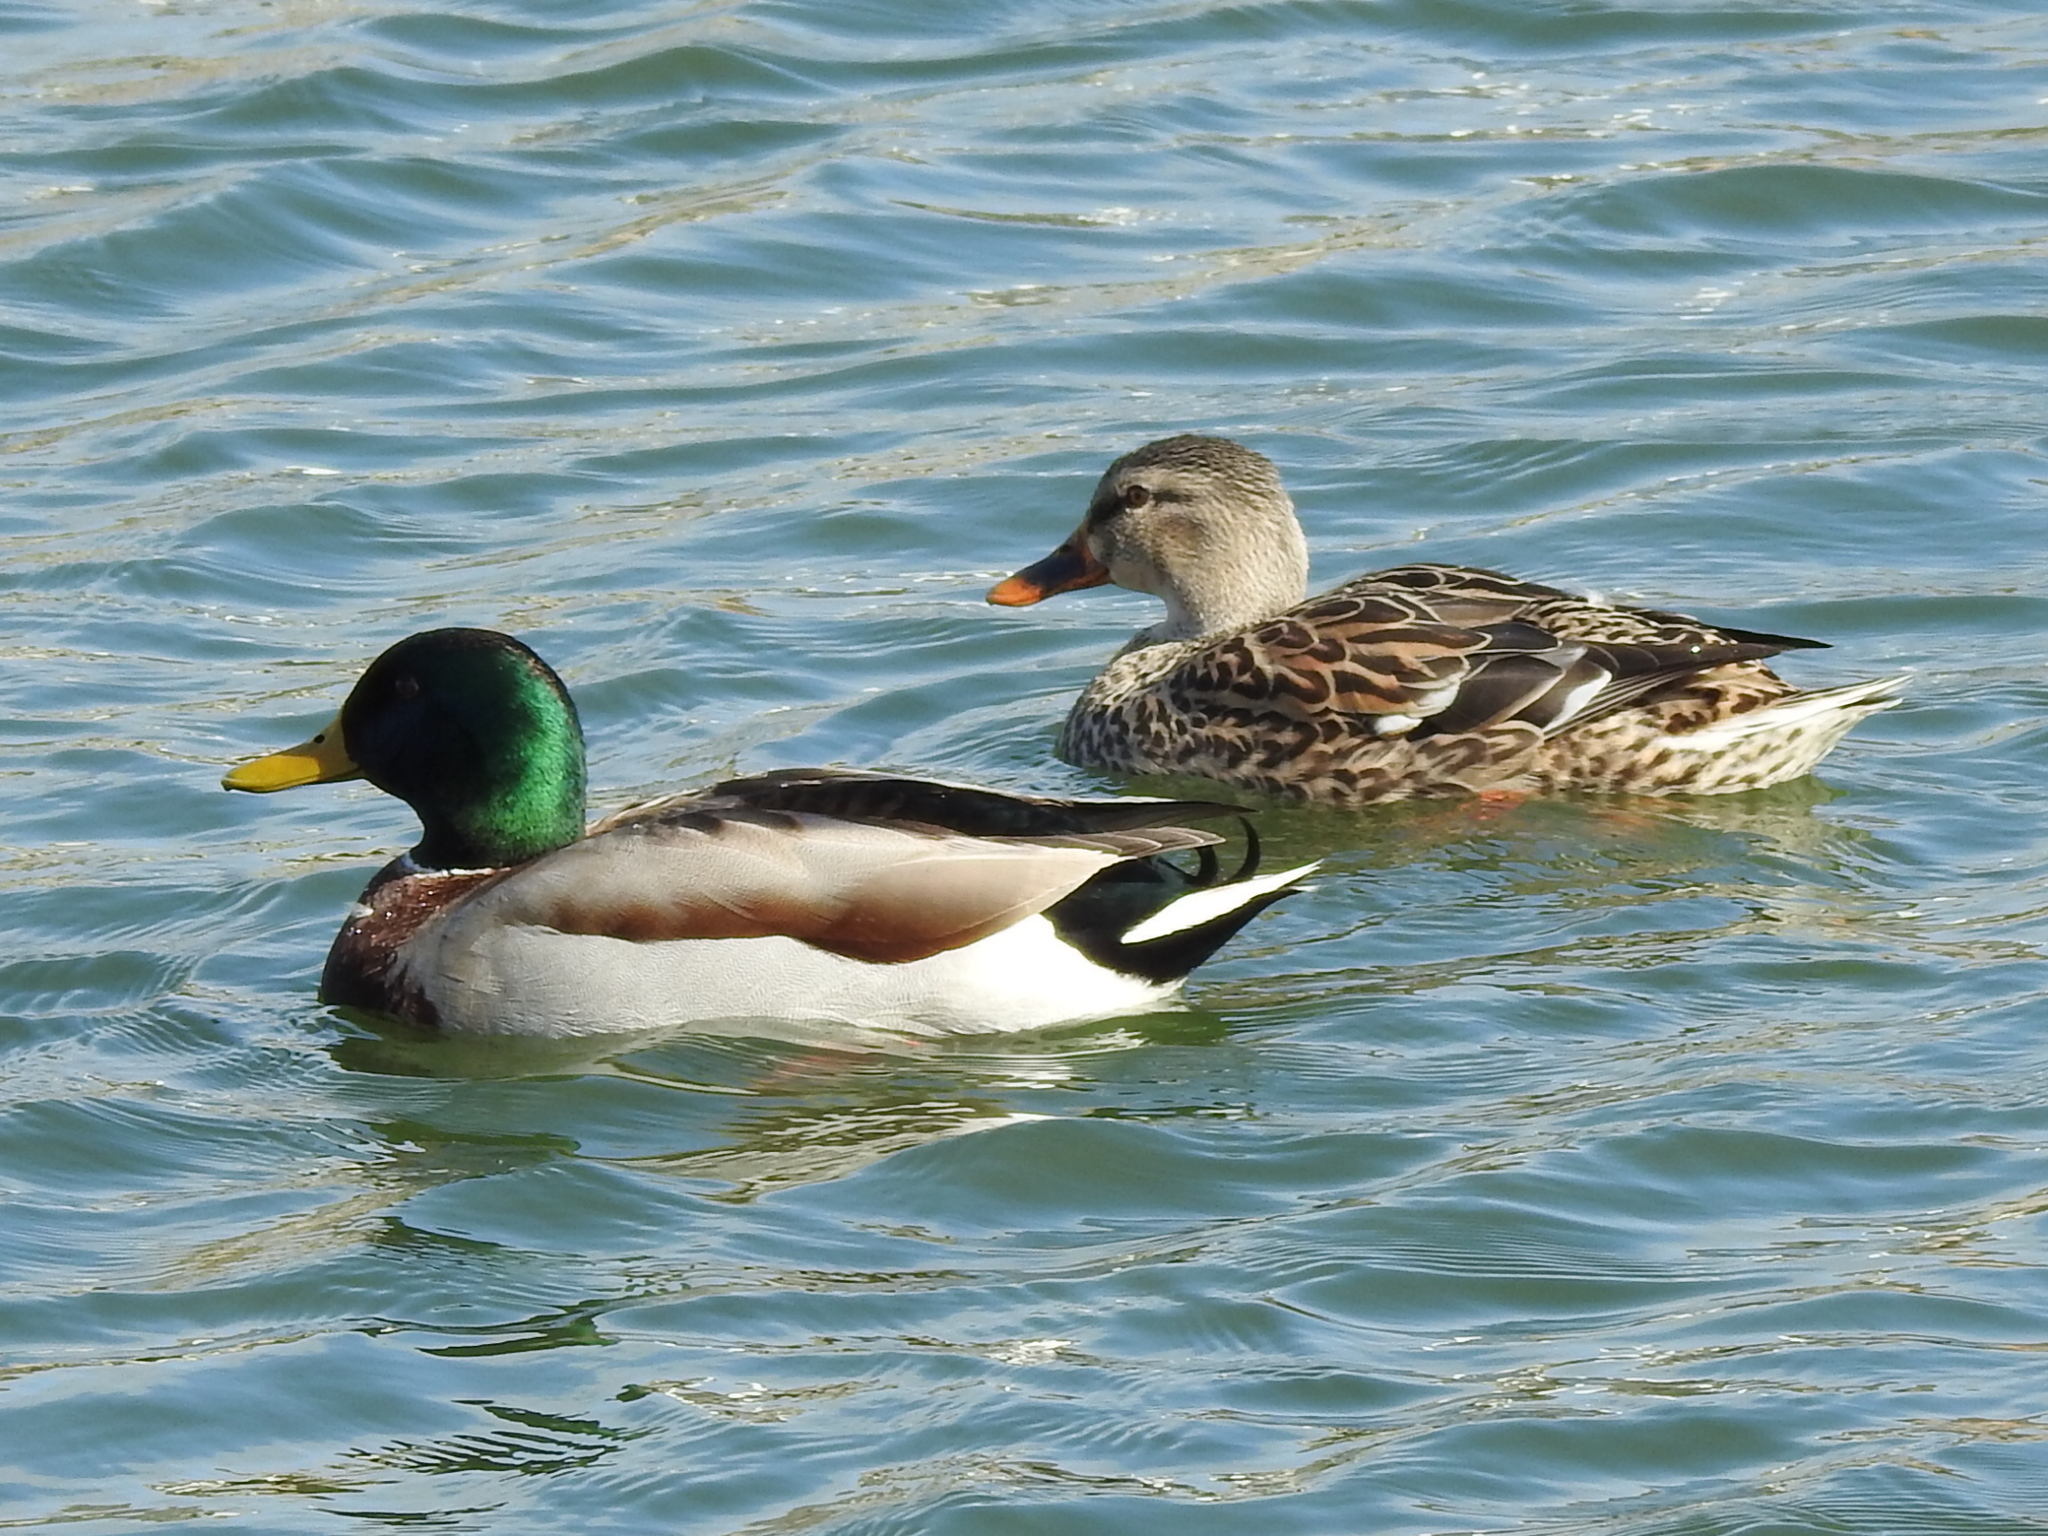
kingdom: Animalia
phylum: Chordata
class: Aves
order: Anseriformes
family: Anatidae
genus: Anas
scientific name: Anas platyrhynchos
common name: Mallard
